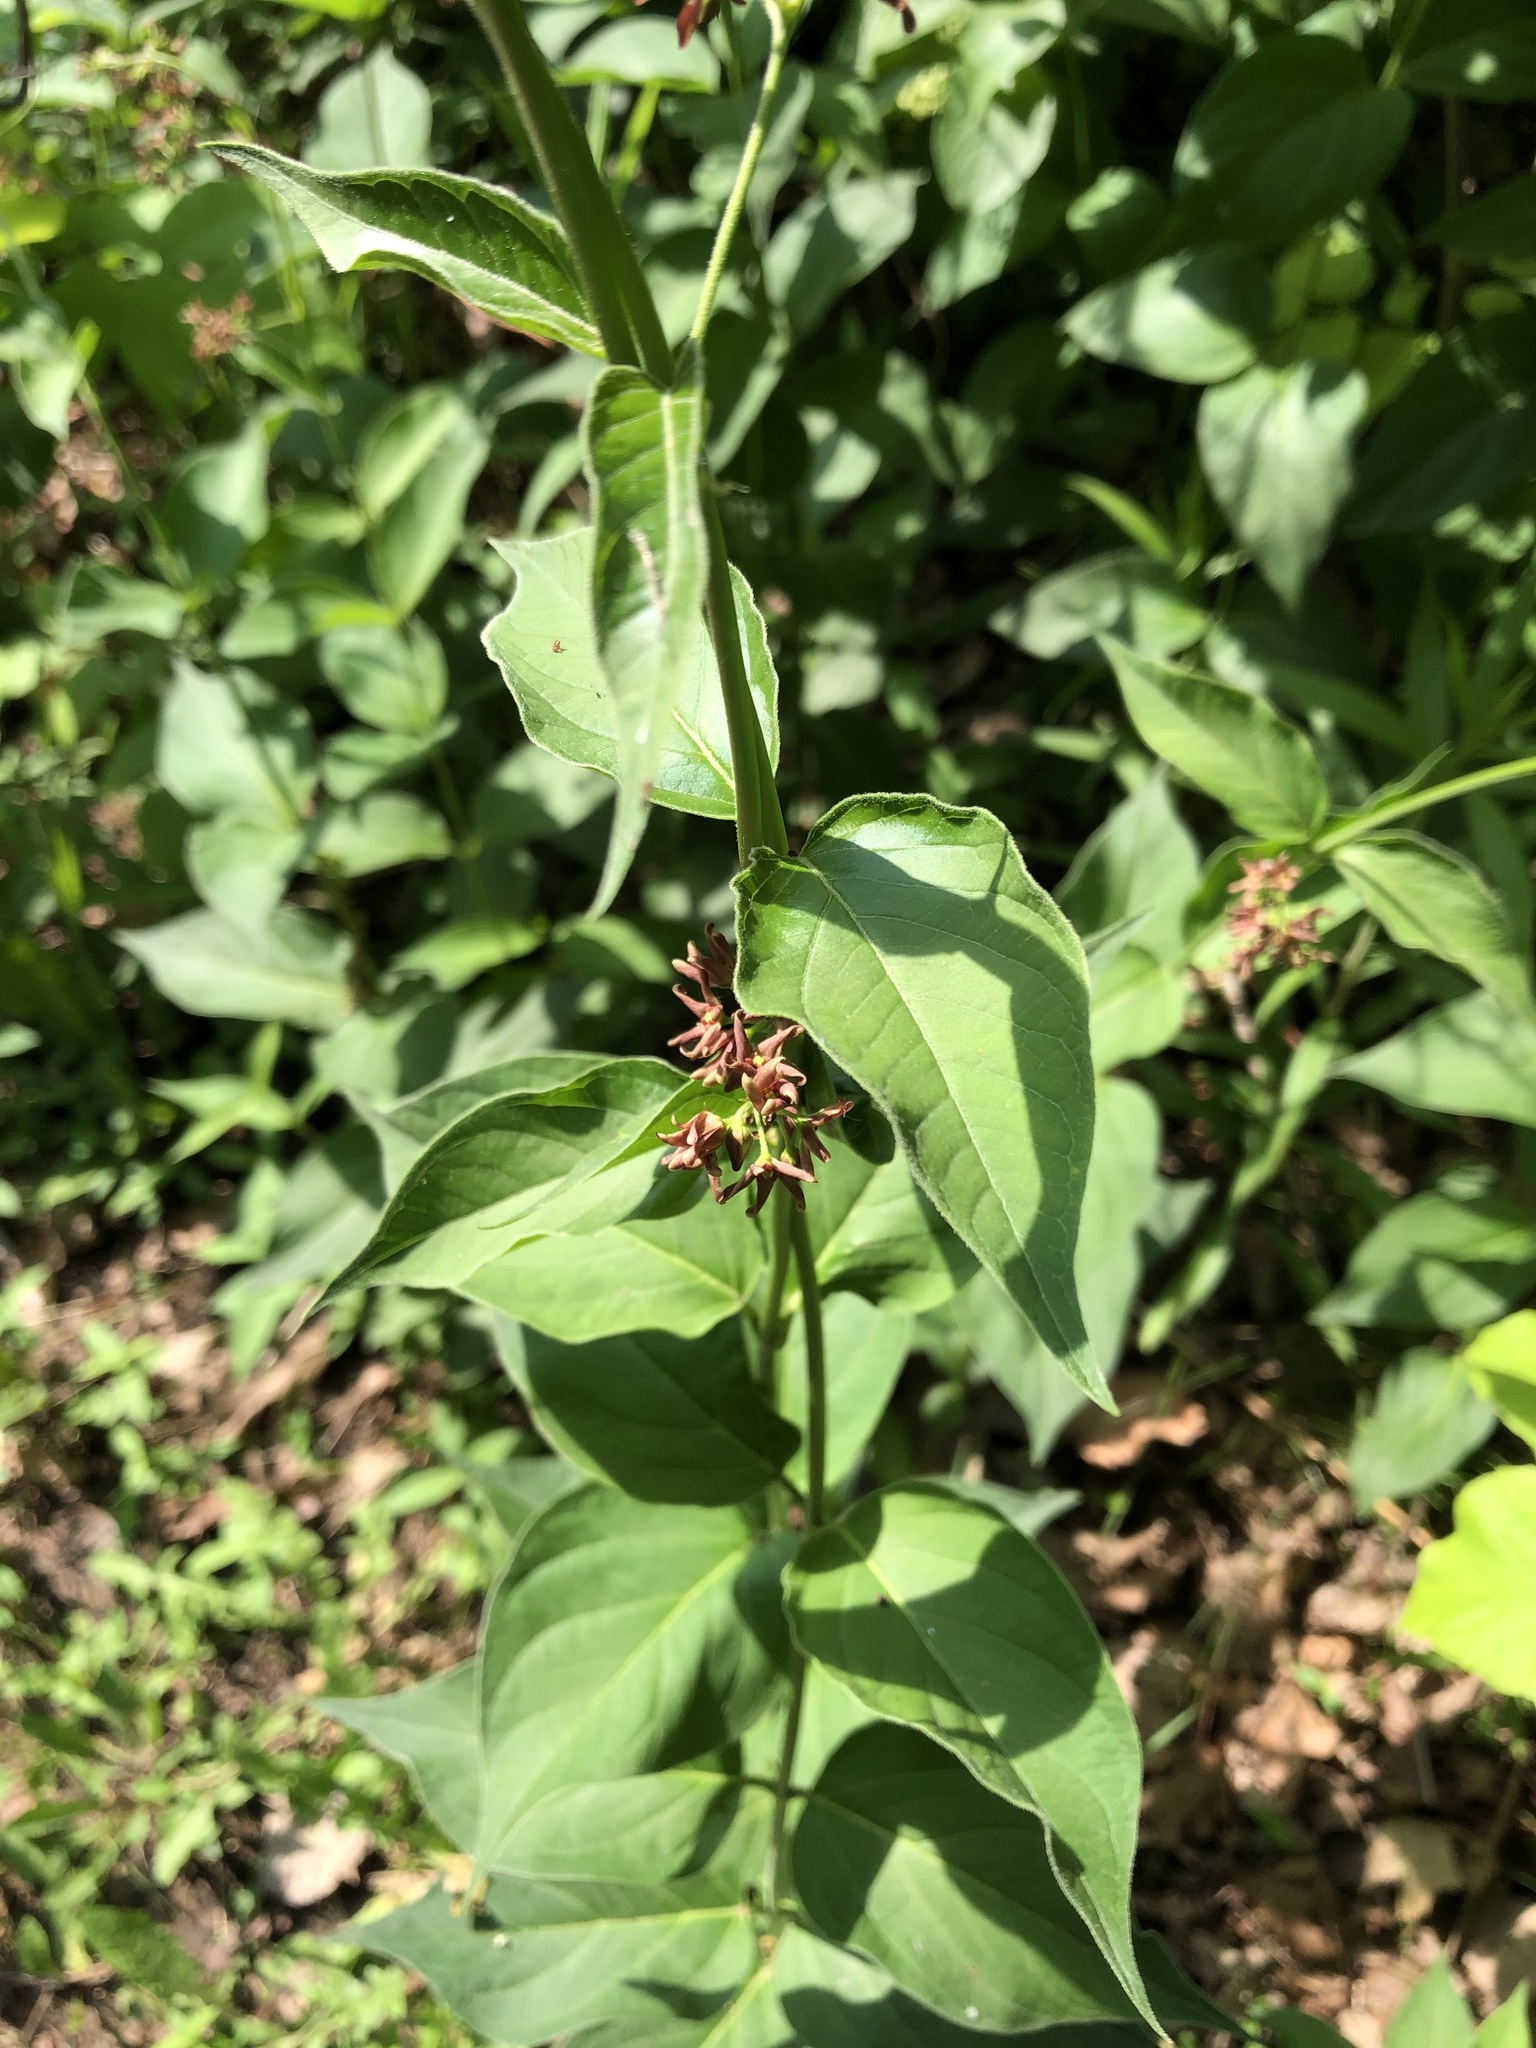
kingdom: Plantae
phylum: Tracheophyta
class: Magnoliopsida
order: Gentianales
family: Apocynaceae
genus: Vincetoxicum
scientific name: Vincetoxicum rossicum
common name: Dog-strangling vine
